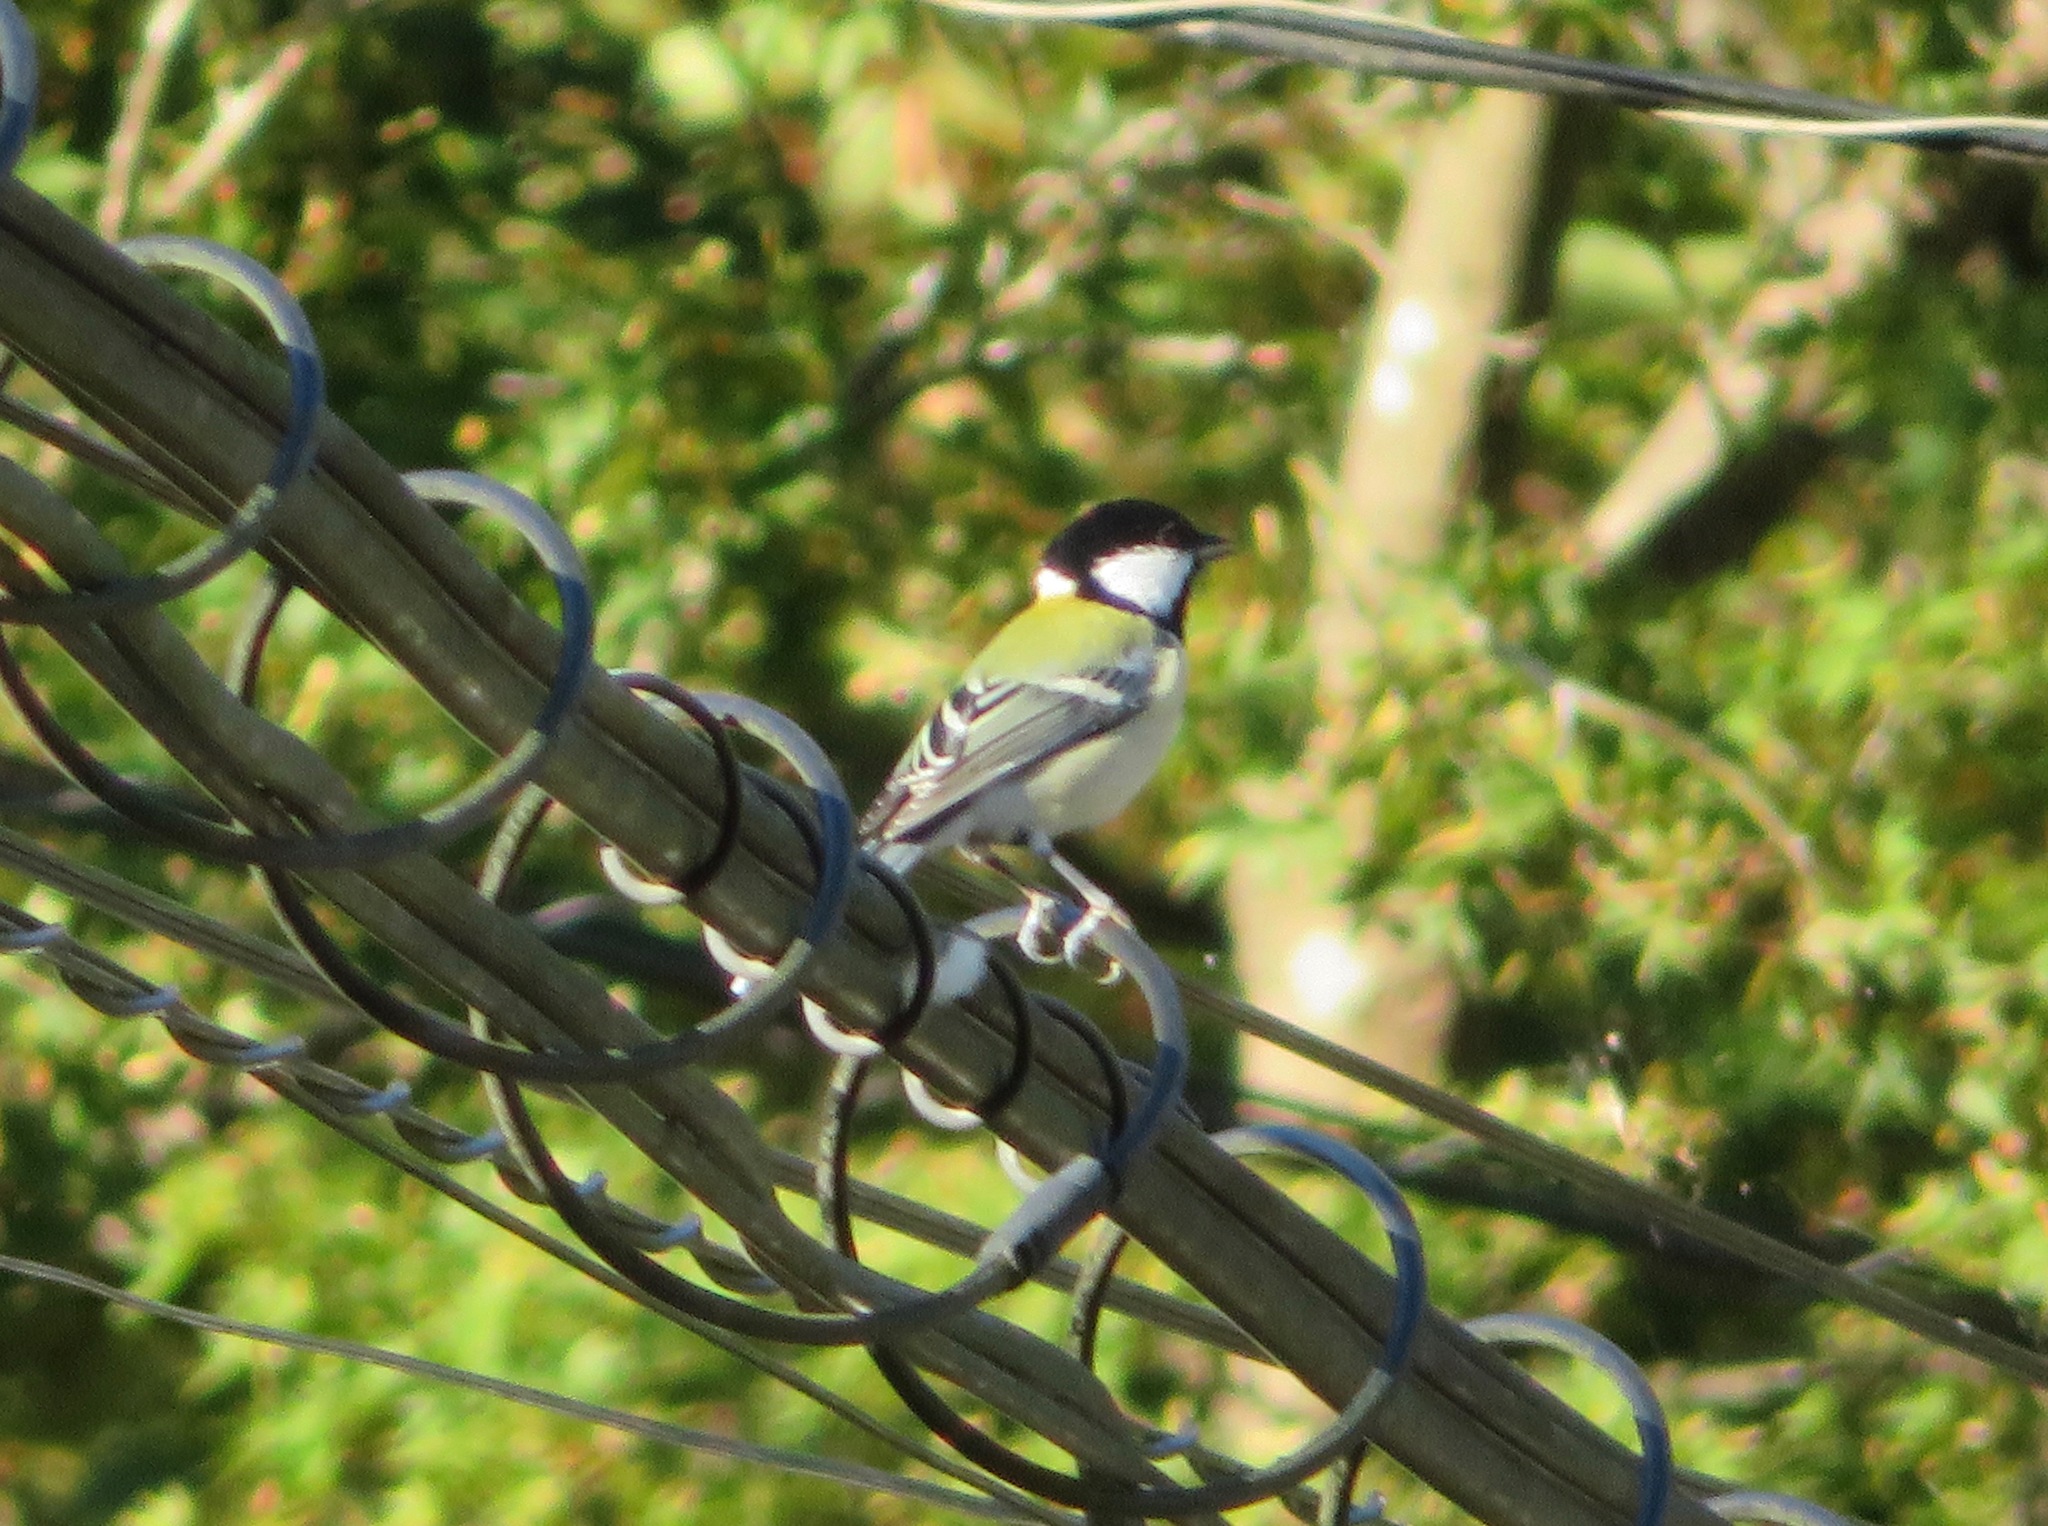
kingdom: Animalia
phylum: Chordata
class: Aves
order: Passeriformes
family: Paridae
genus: Parus
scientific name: Parus minor
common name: Japanese tit
